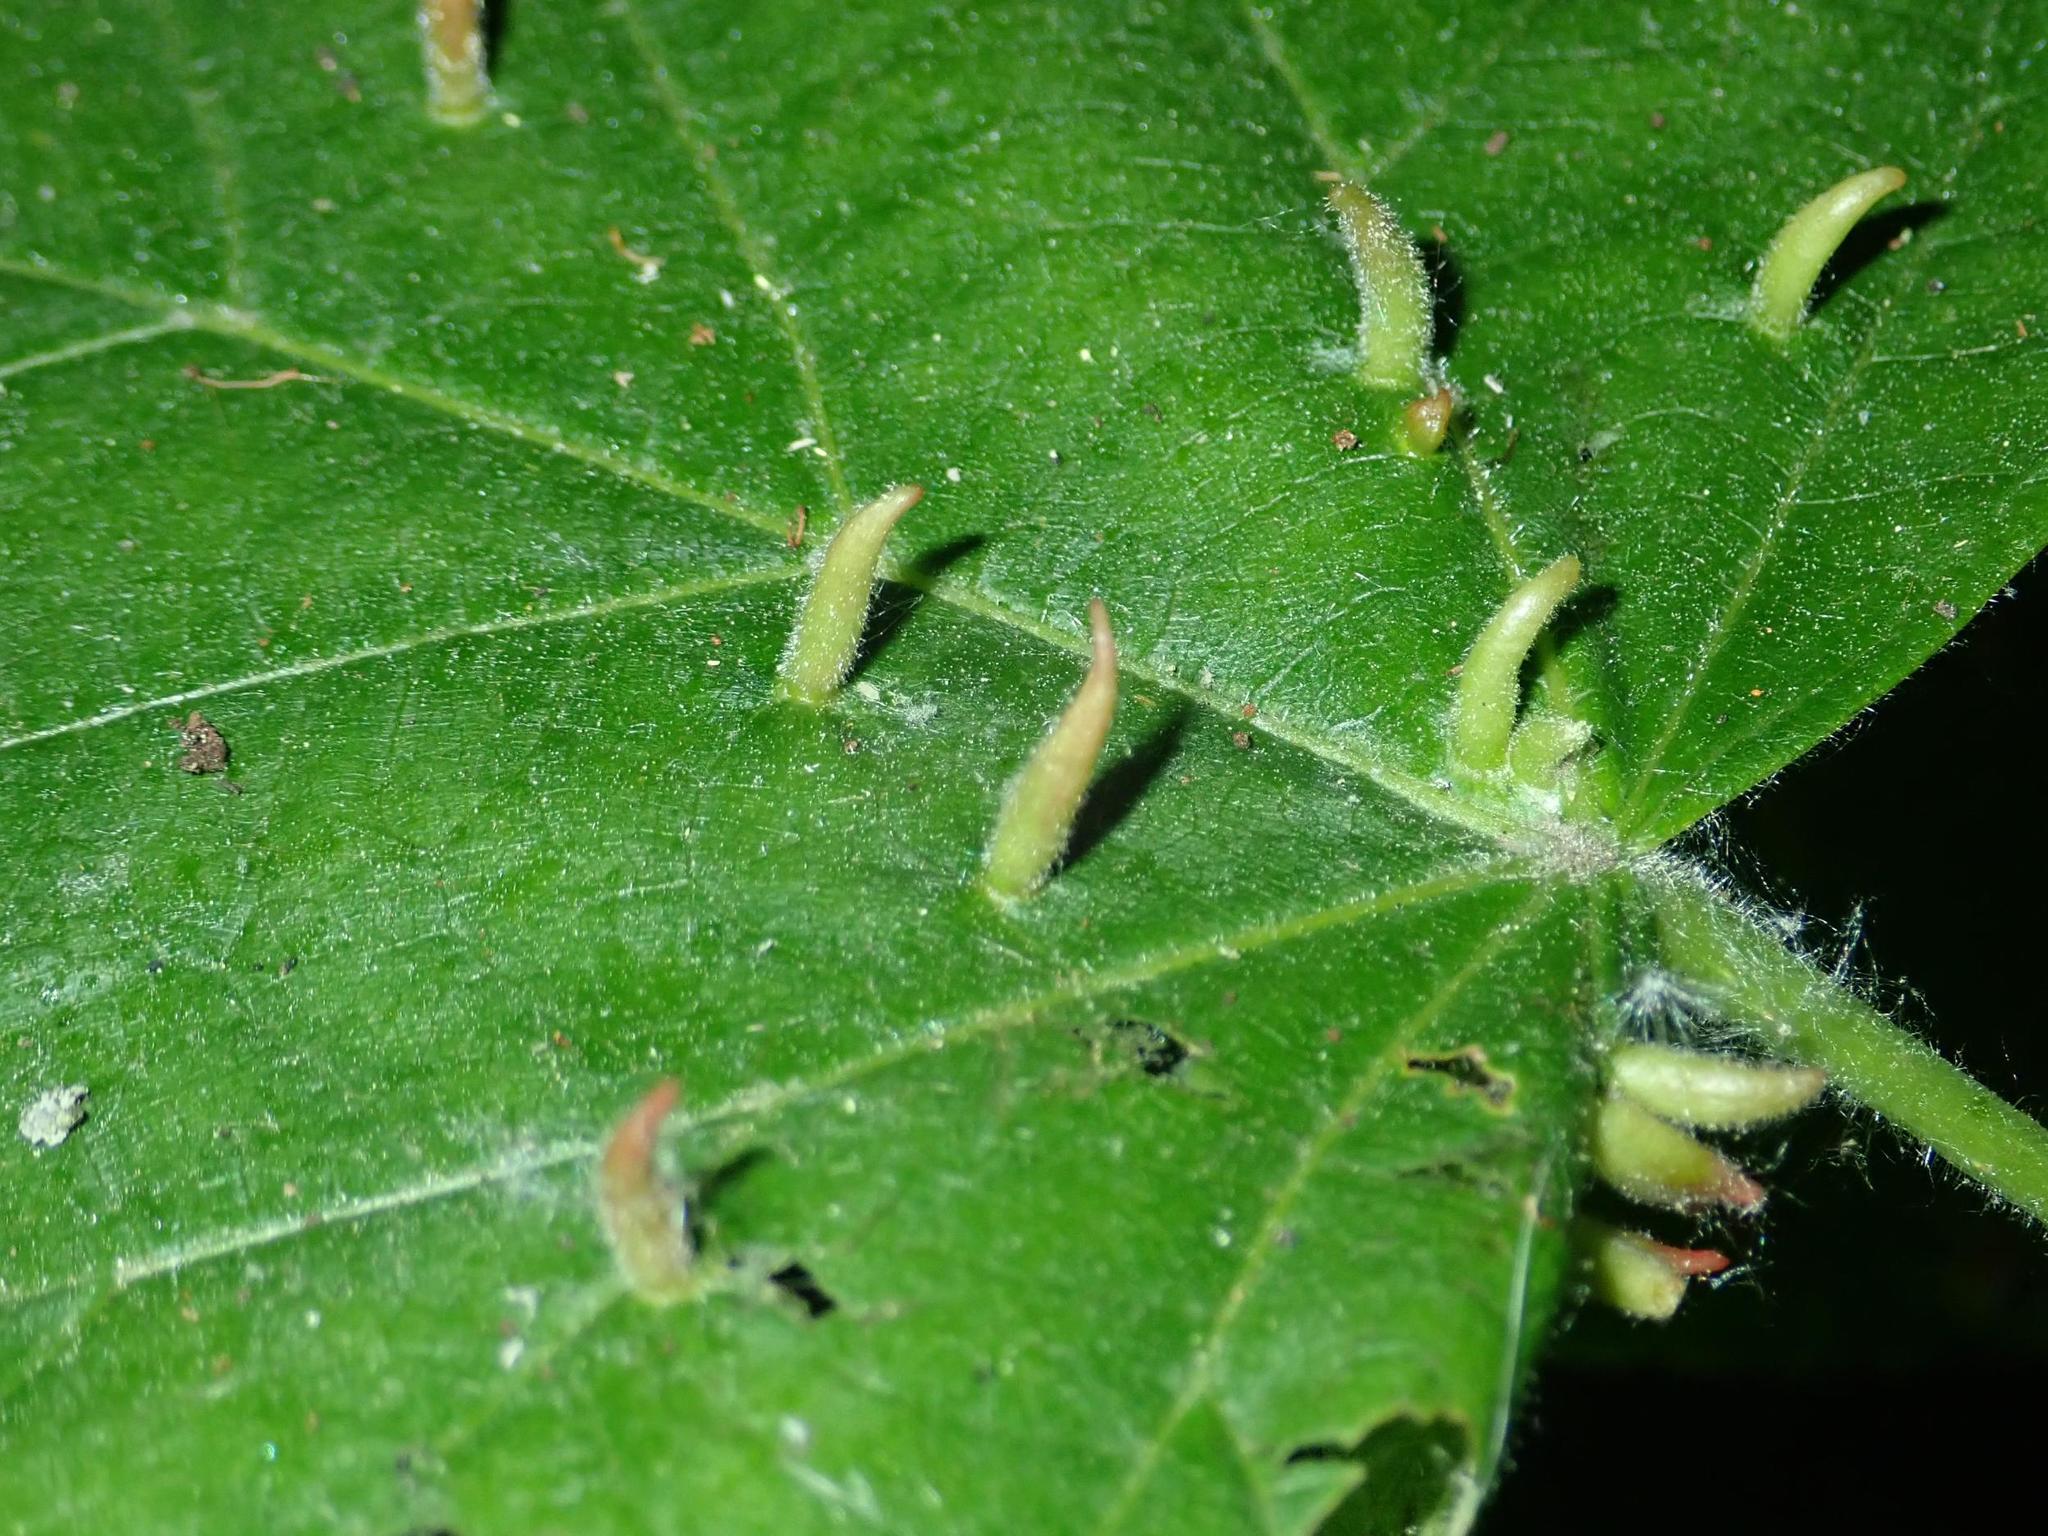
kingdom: Animalia
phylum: Arthropoda
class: Arachnida
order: Trombidiformes
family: Eriophyidae
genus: Eriophyes
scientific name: Eriophyes tiliae
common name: Red nail gall mite
